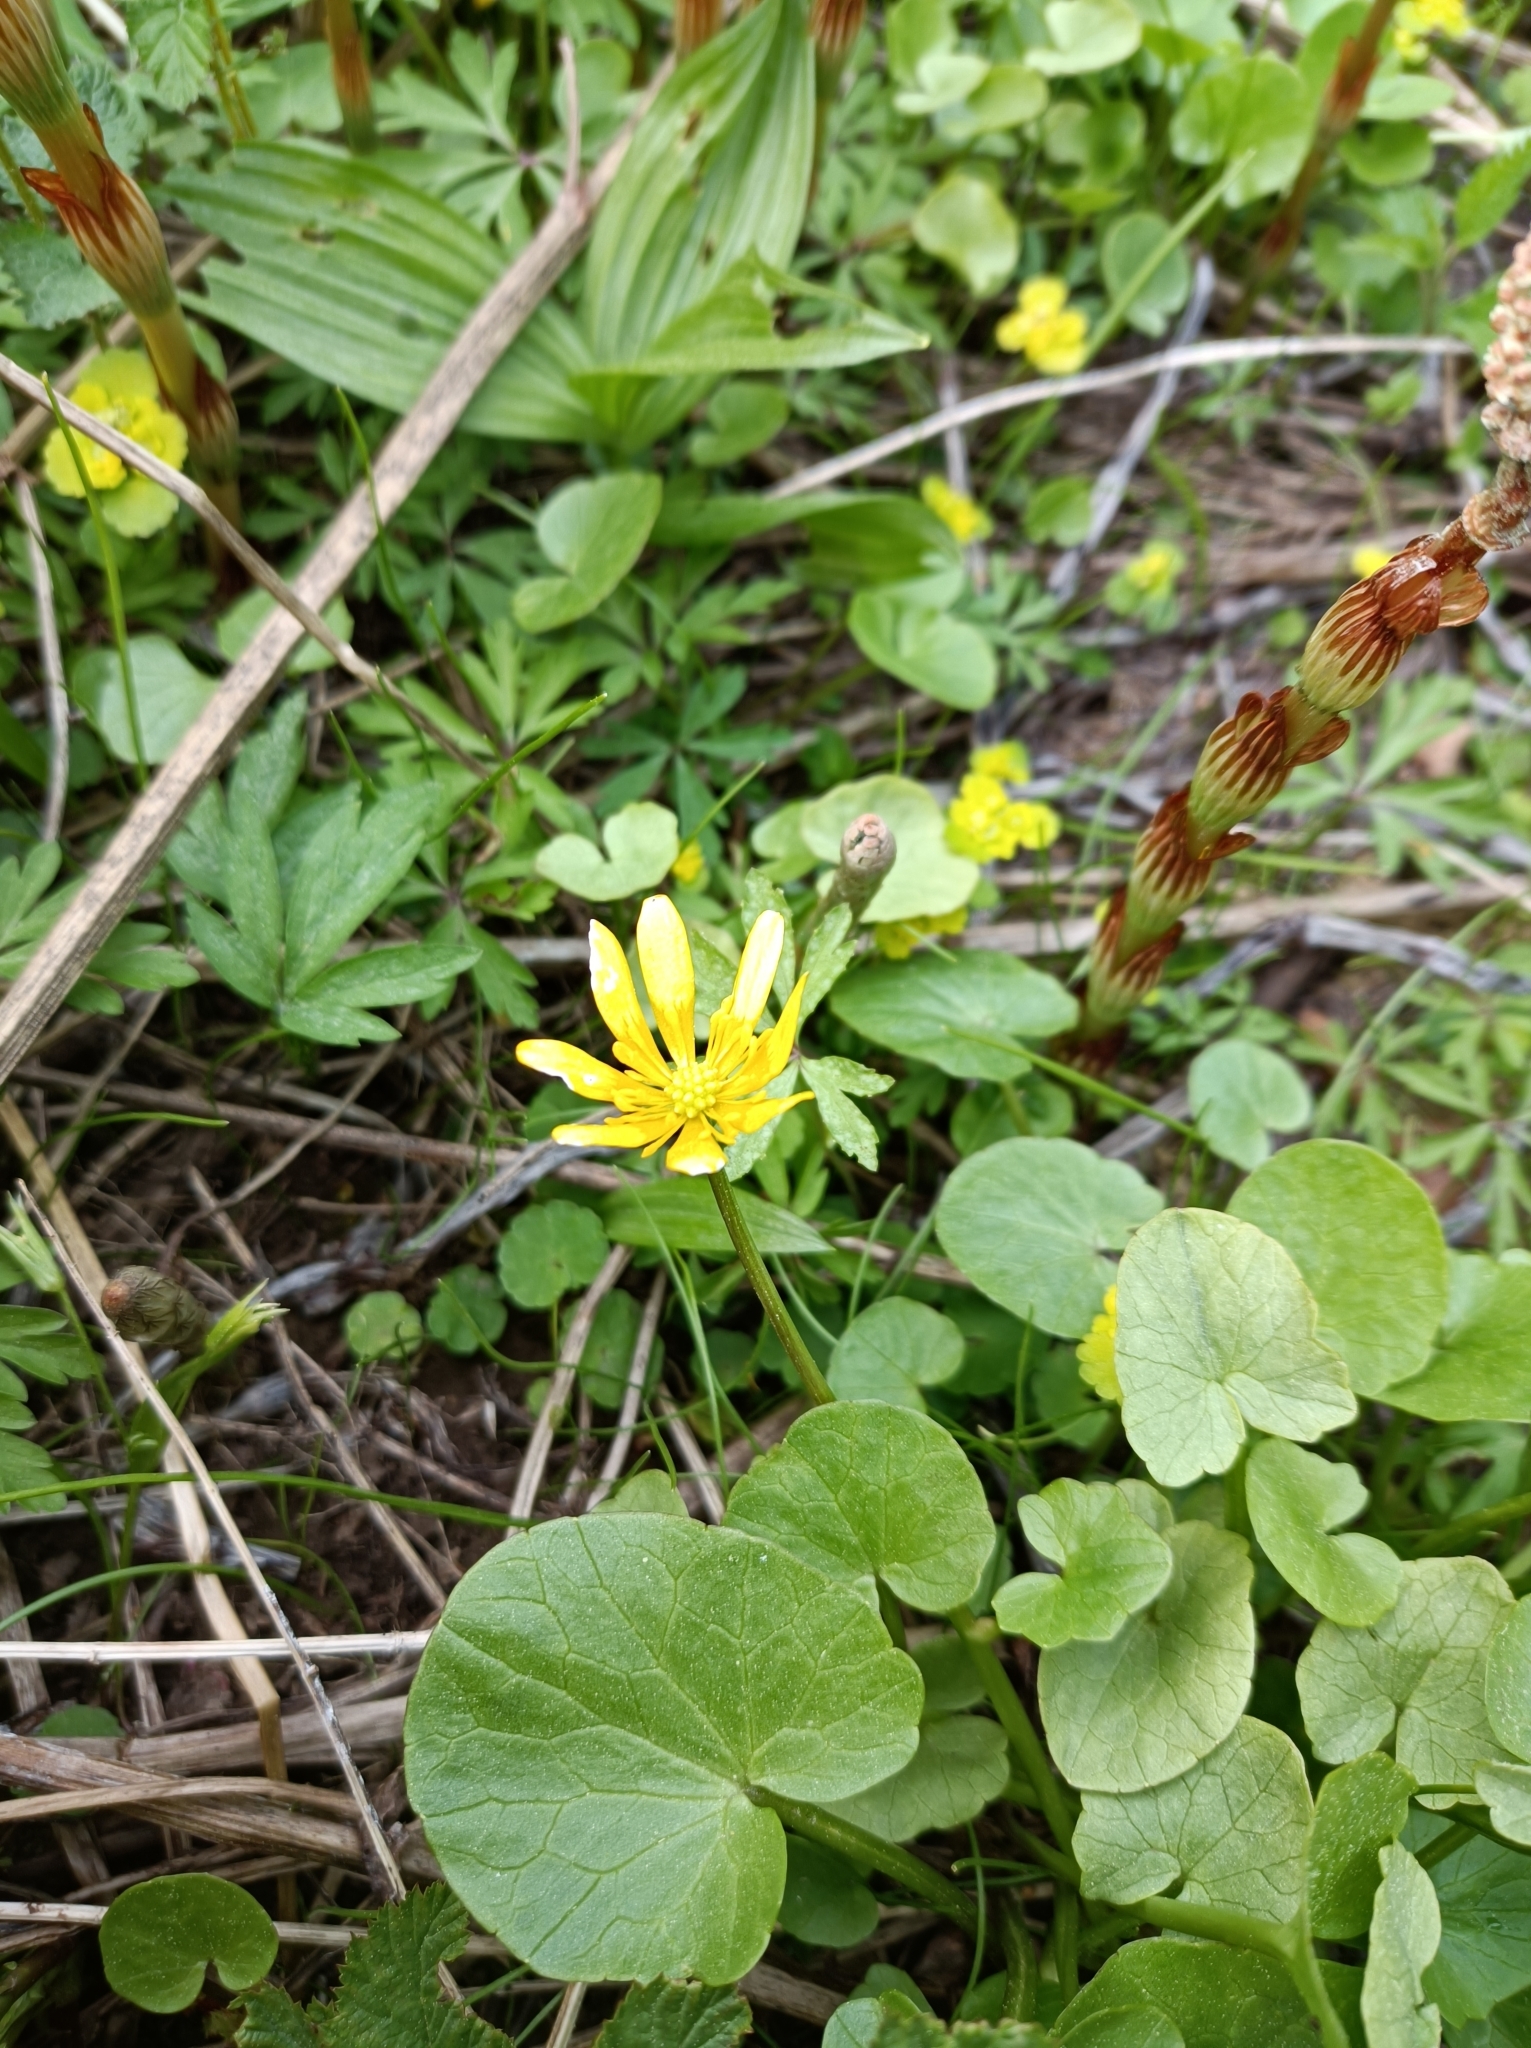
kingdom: Plantae
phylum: Tracheophyta
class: Magnoliopsida
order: Ranunculales
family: Ranunculaceae
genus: Ficaria
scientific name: Ficaria verna
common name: Lesser celandine
